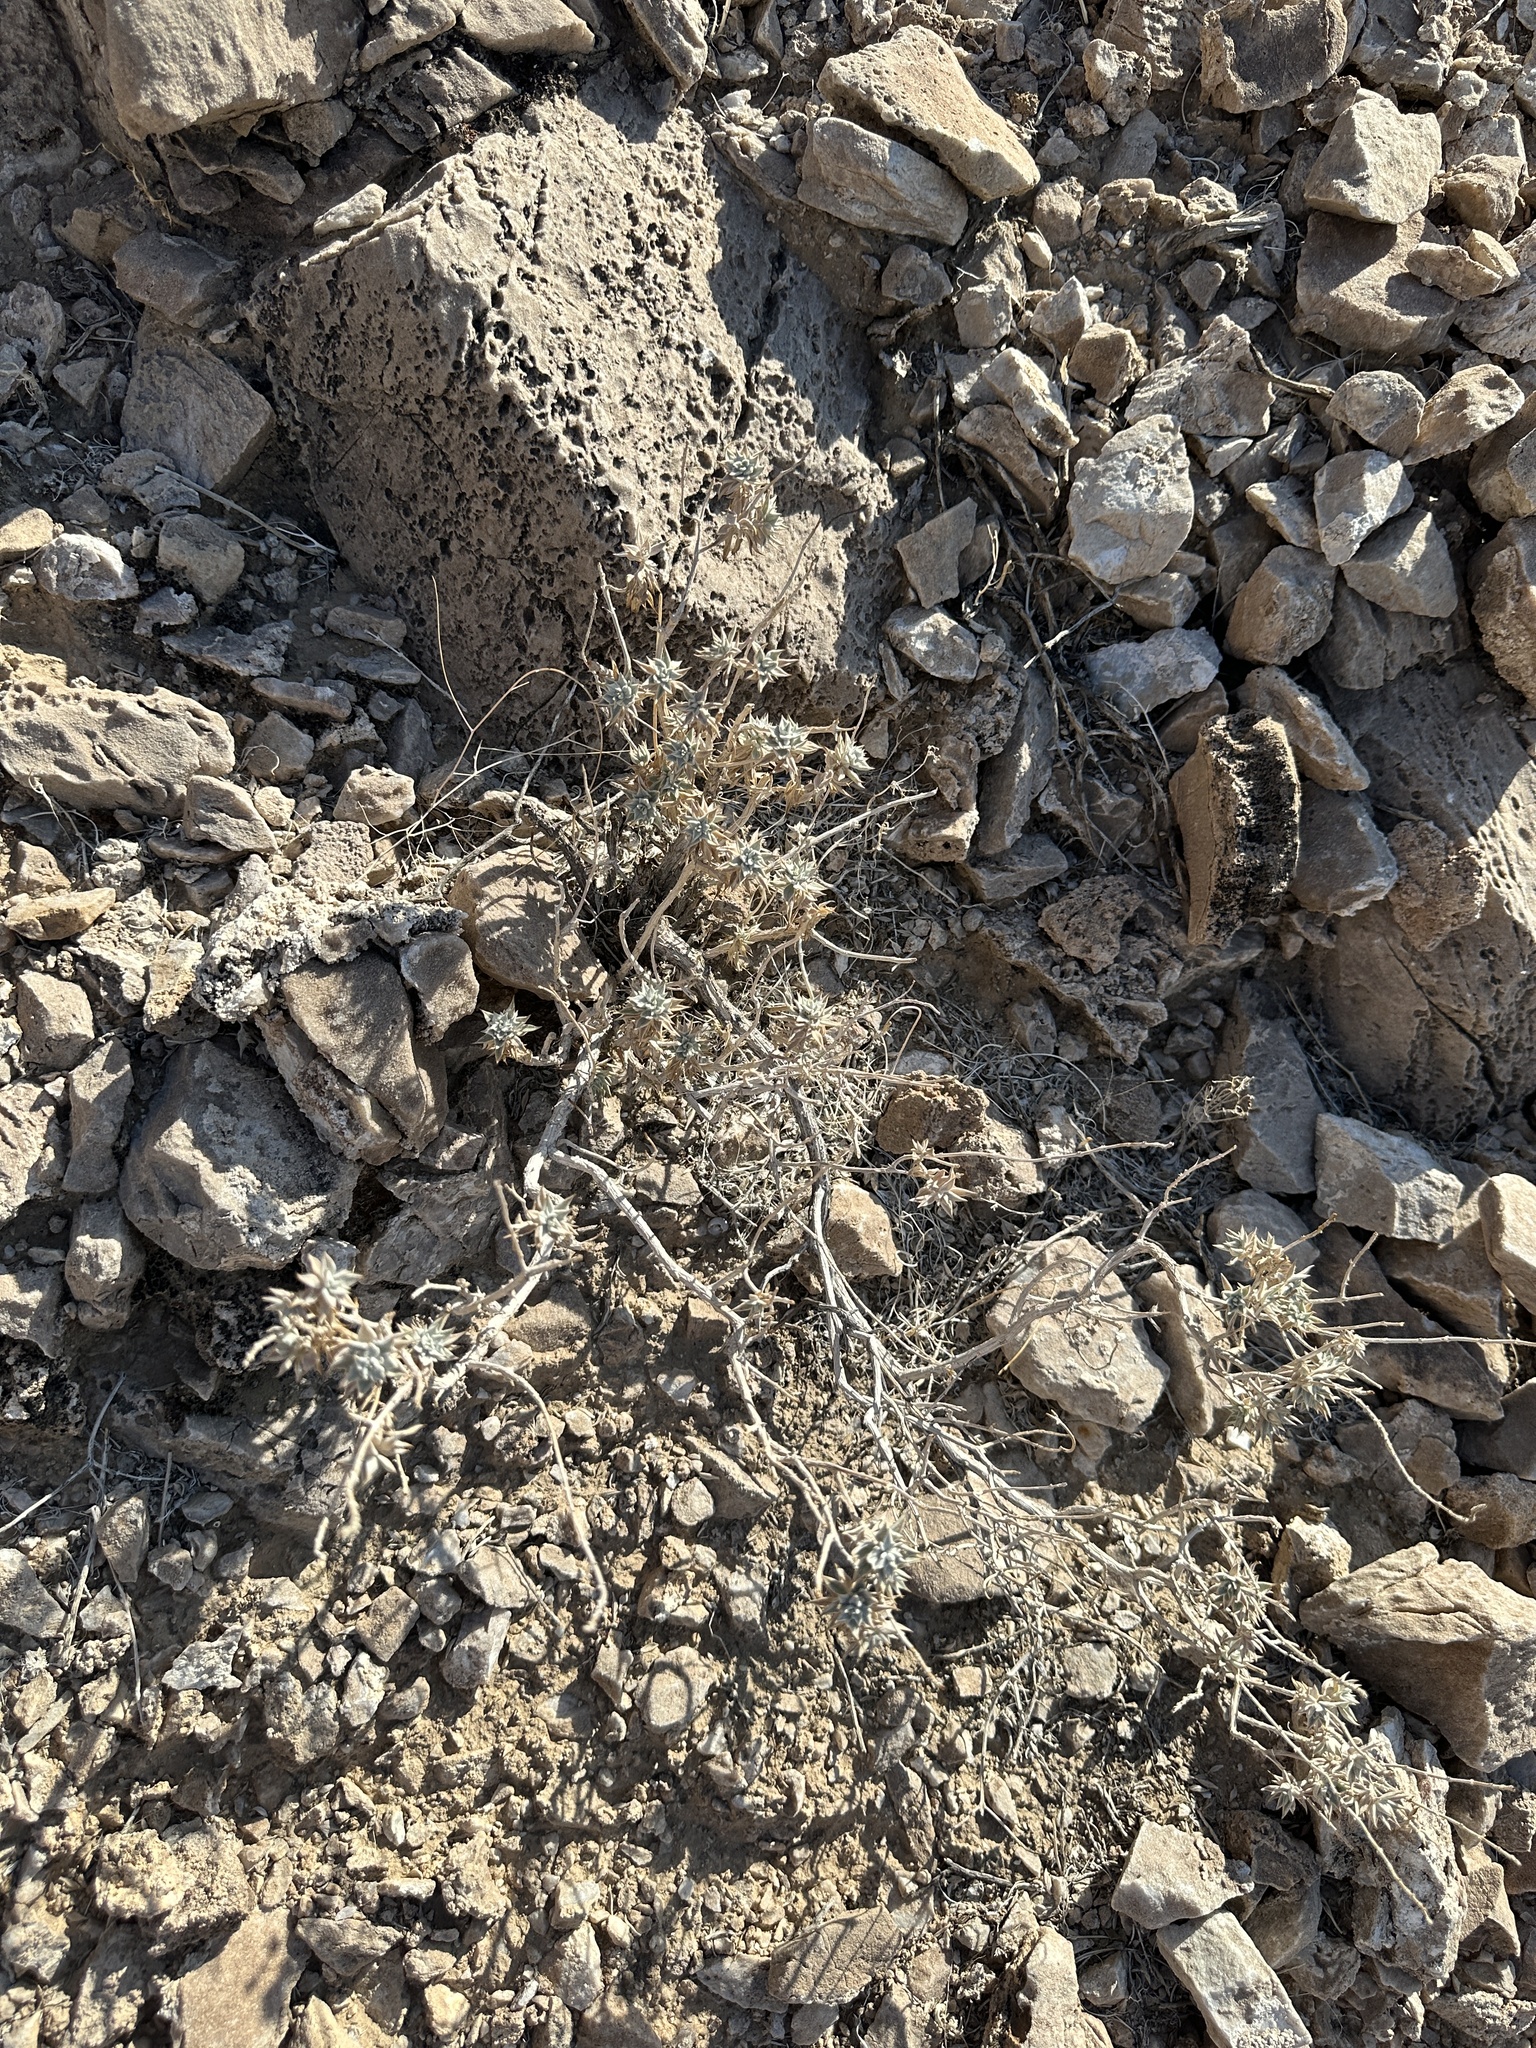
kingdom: Plantae
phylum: Tracheophyta
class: Magnoliopsida
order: Lamiales
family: Lamiaceae
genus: Salvia
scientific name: Salvia funerea
